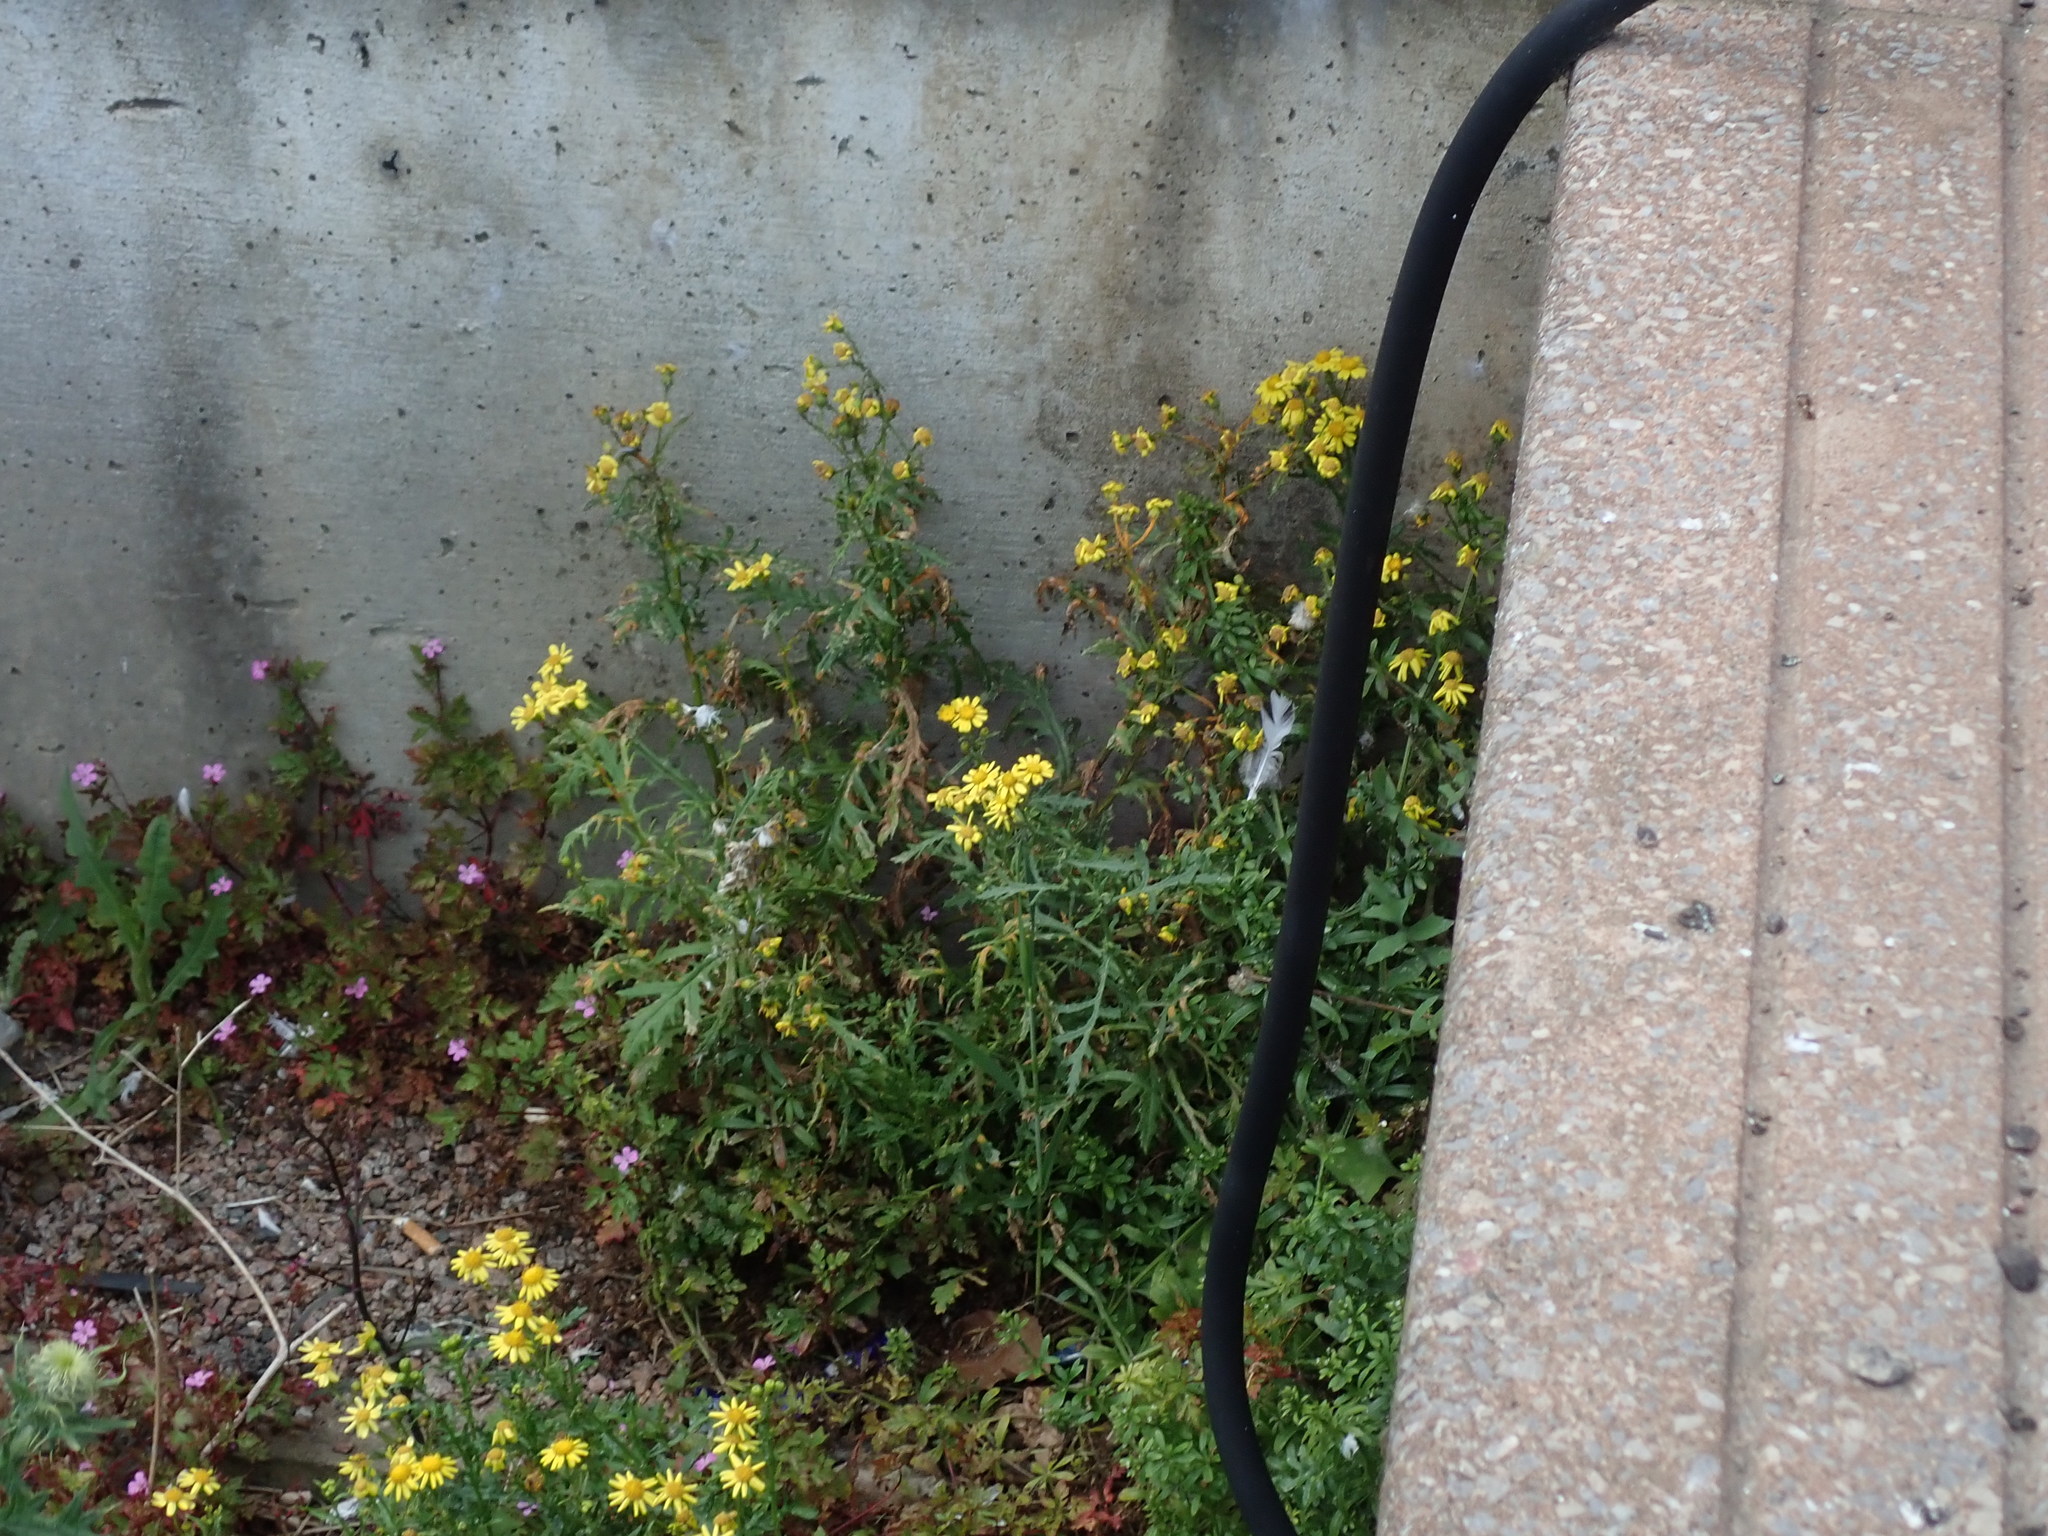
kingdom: Plantae
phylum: Tracheophyta
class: Magnoliopsida
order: Asterales
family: Asteraceae
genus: Senecio
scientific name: Senecio squalidus
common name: Oxford ragwort
